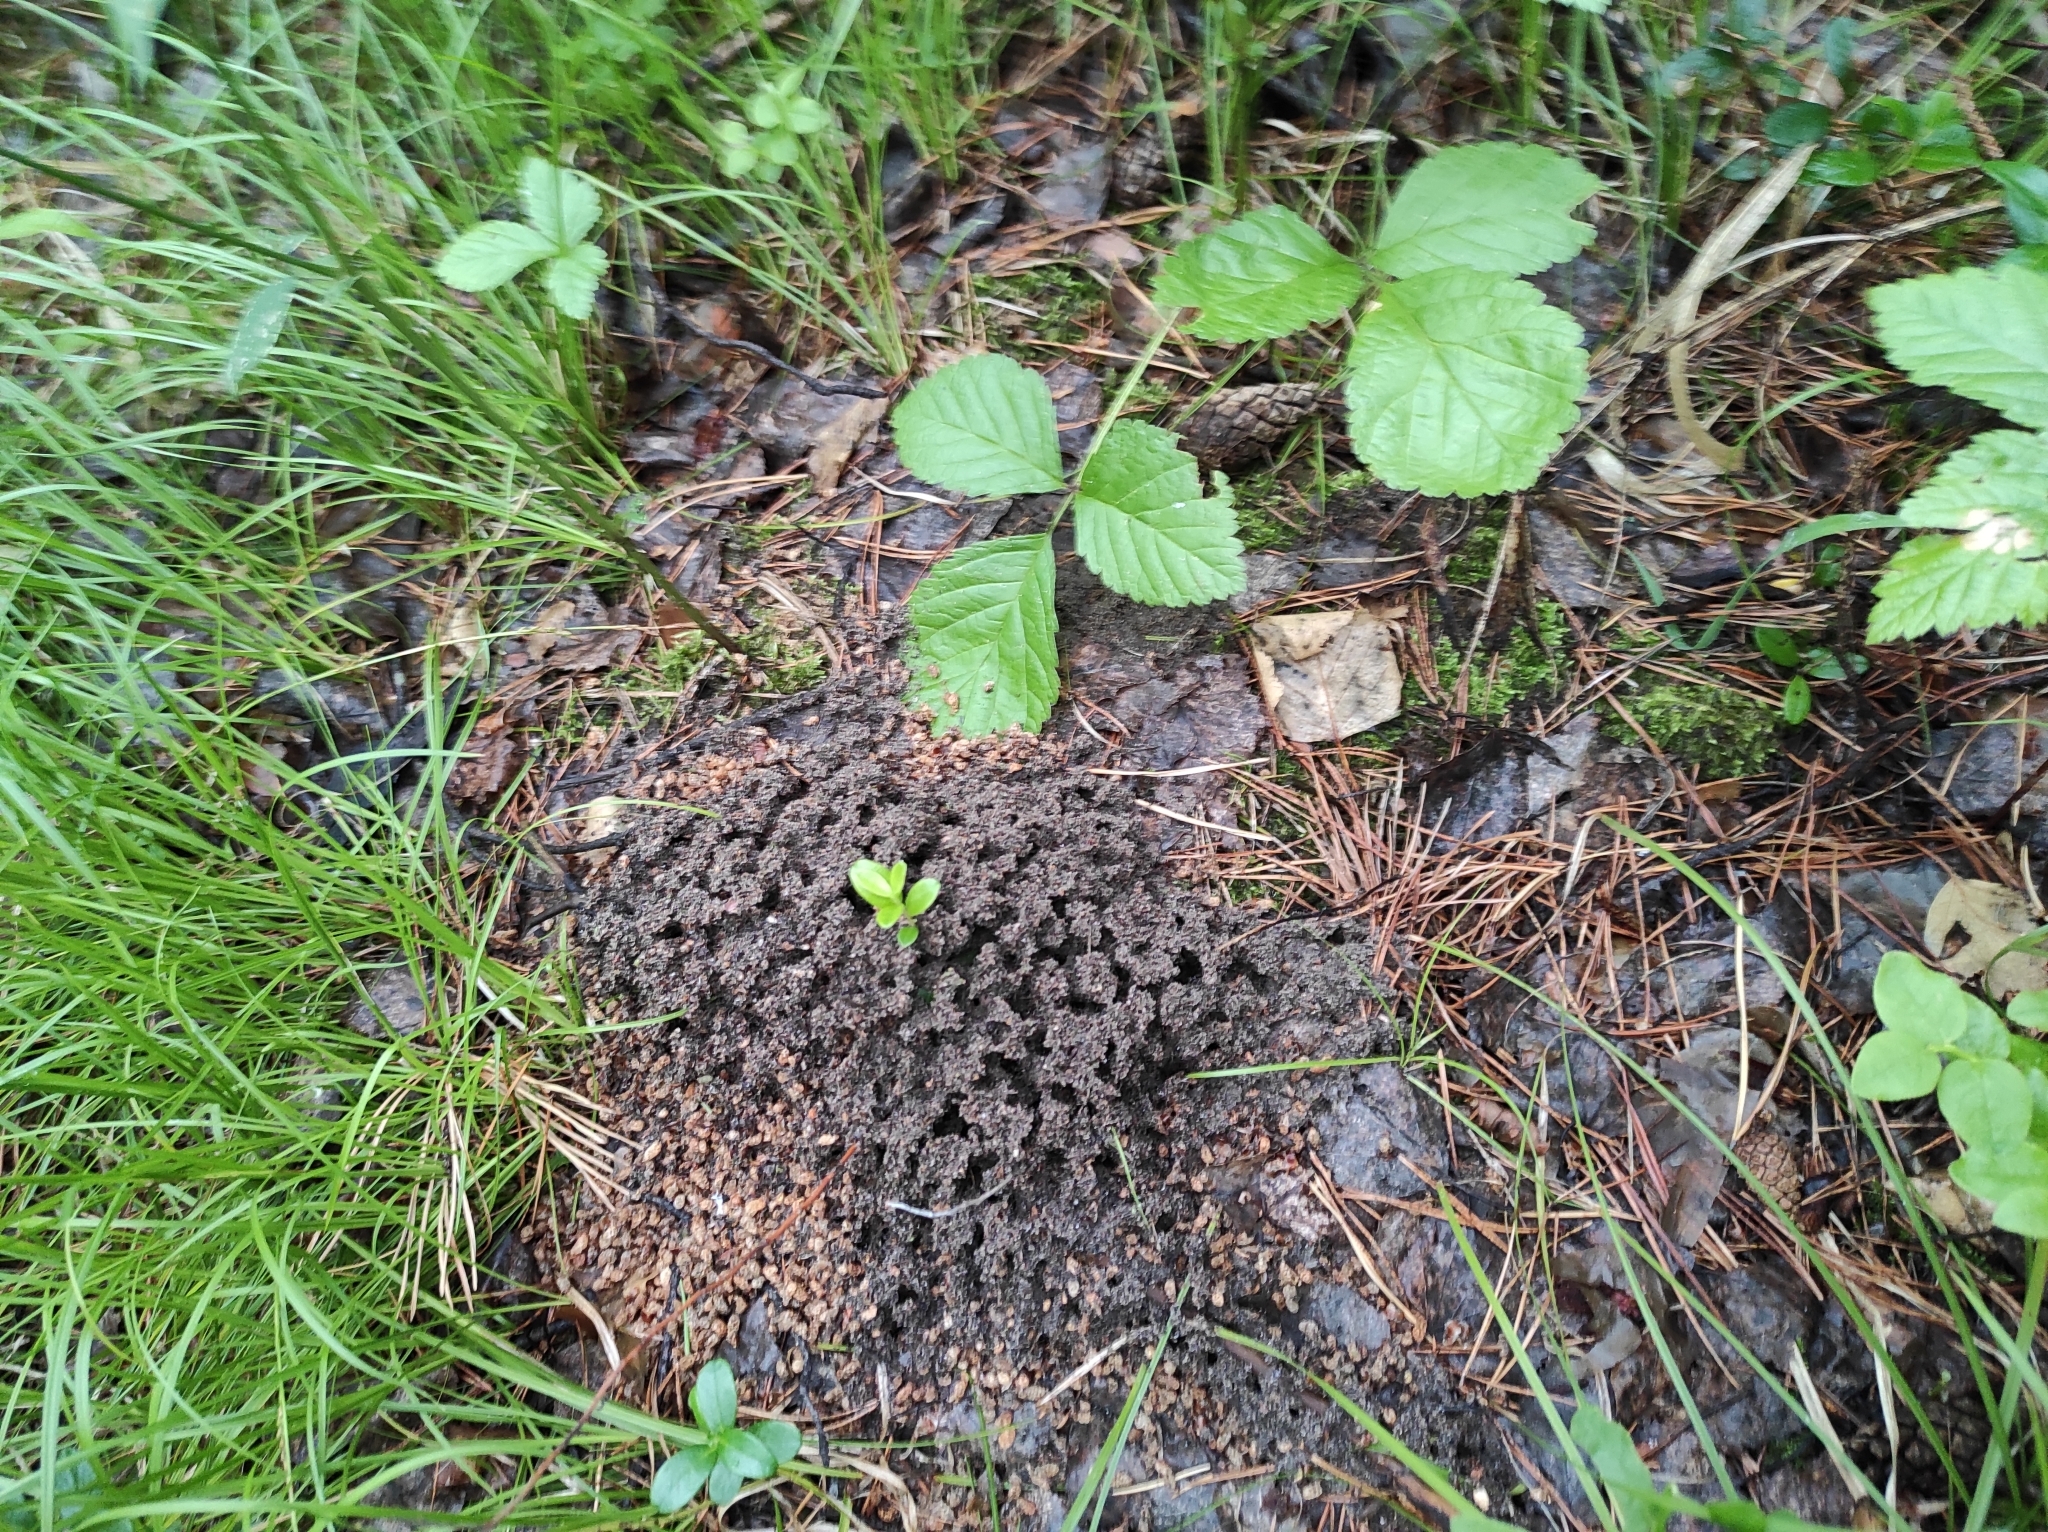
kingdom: Plantae
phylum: Tracheophyta
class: Magnoliopsida
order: Ericales
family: Ericaceae
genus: Vaccinium
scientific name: Vaccinium vitis-idaea
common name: Cowberry
